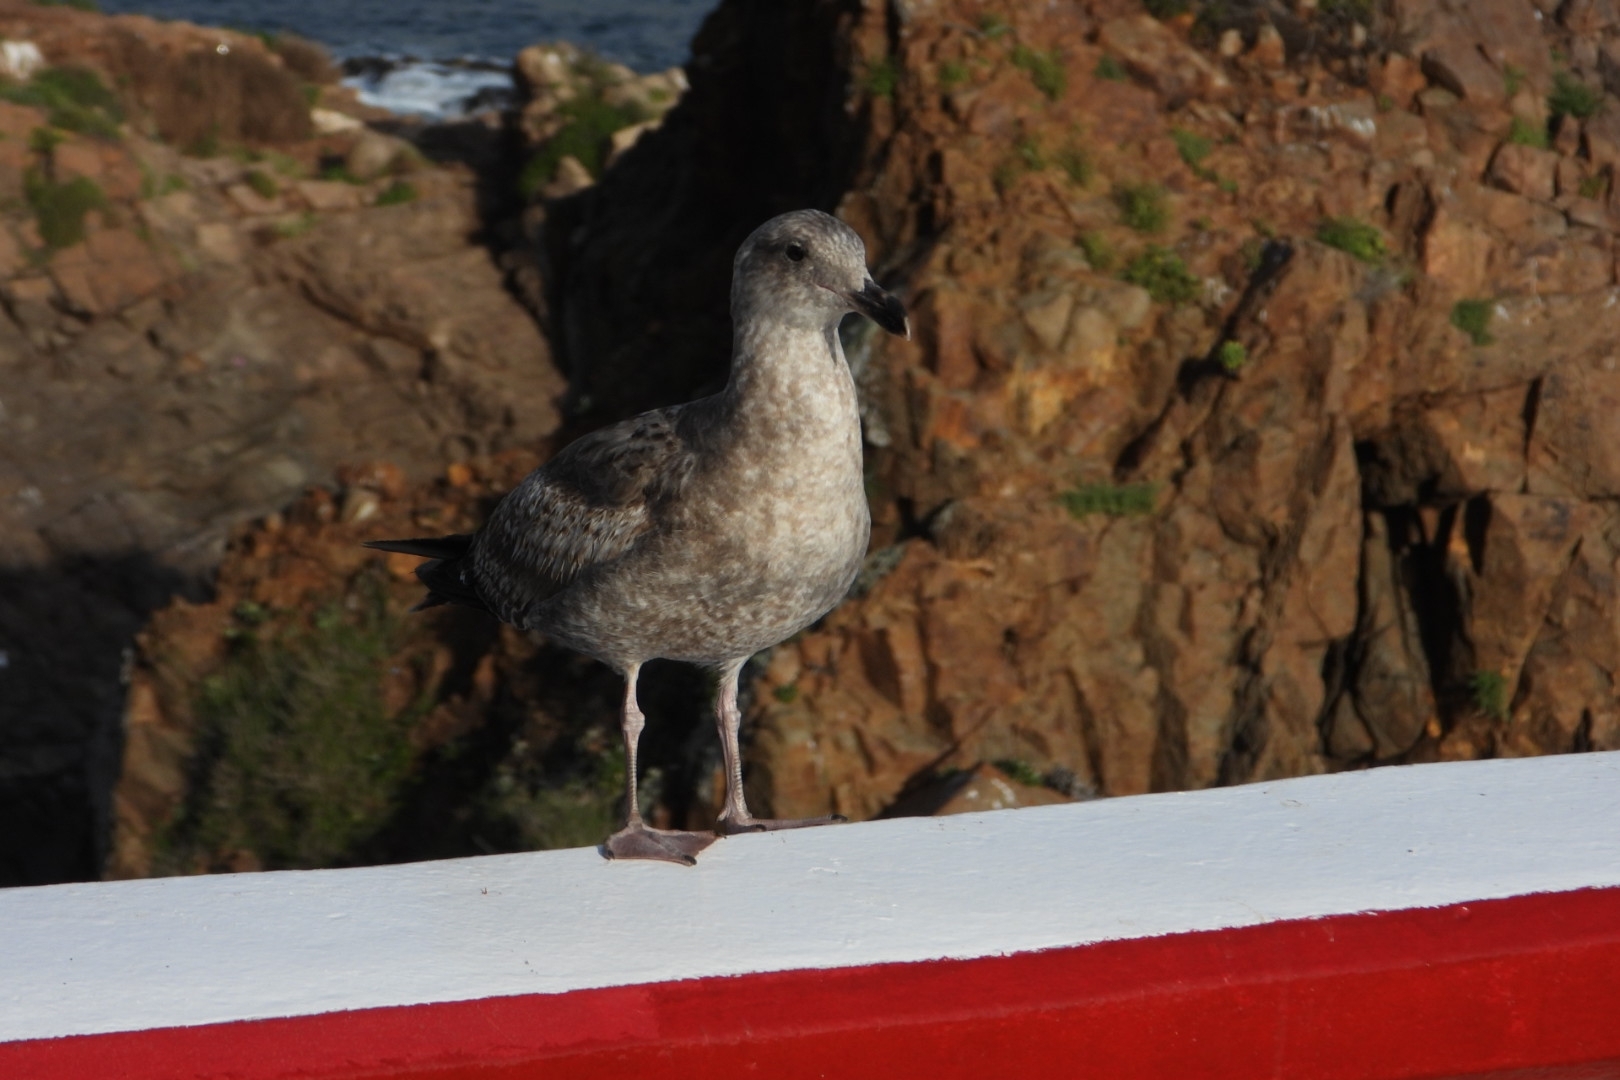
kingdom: Animalia
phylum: Chordata
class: Aves
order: Charadriiformes
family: Laridae
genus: Larus
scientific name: Larus occidentalis
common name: Western gull
